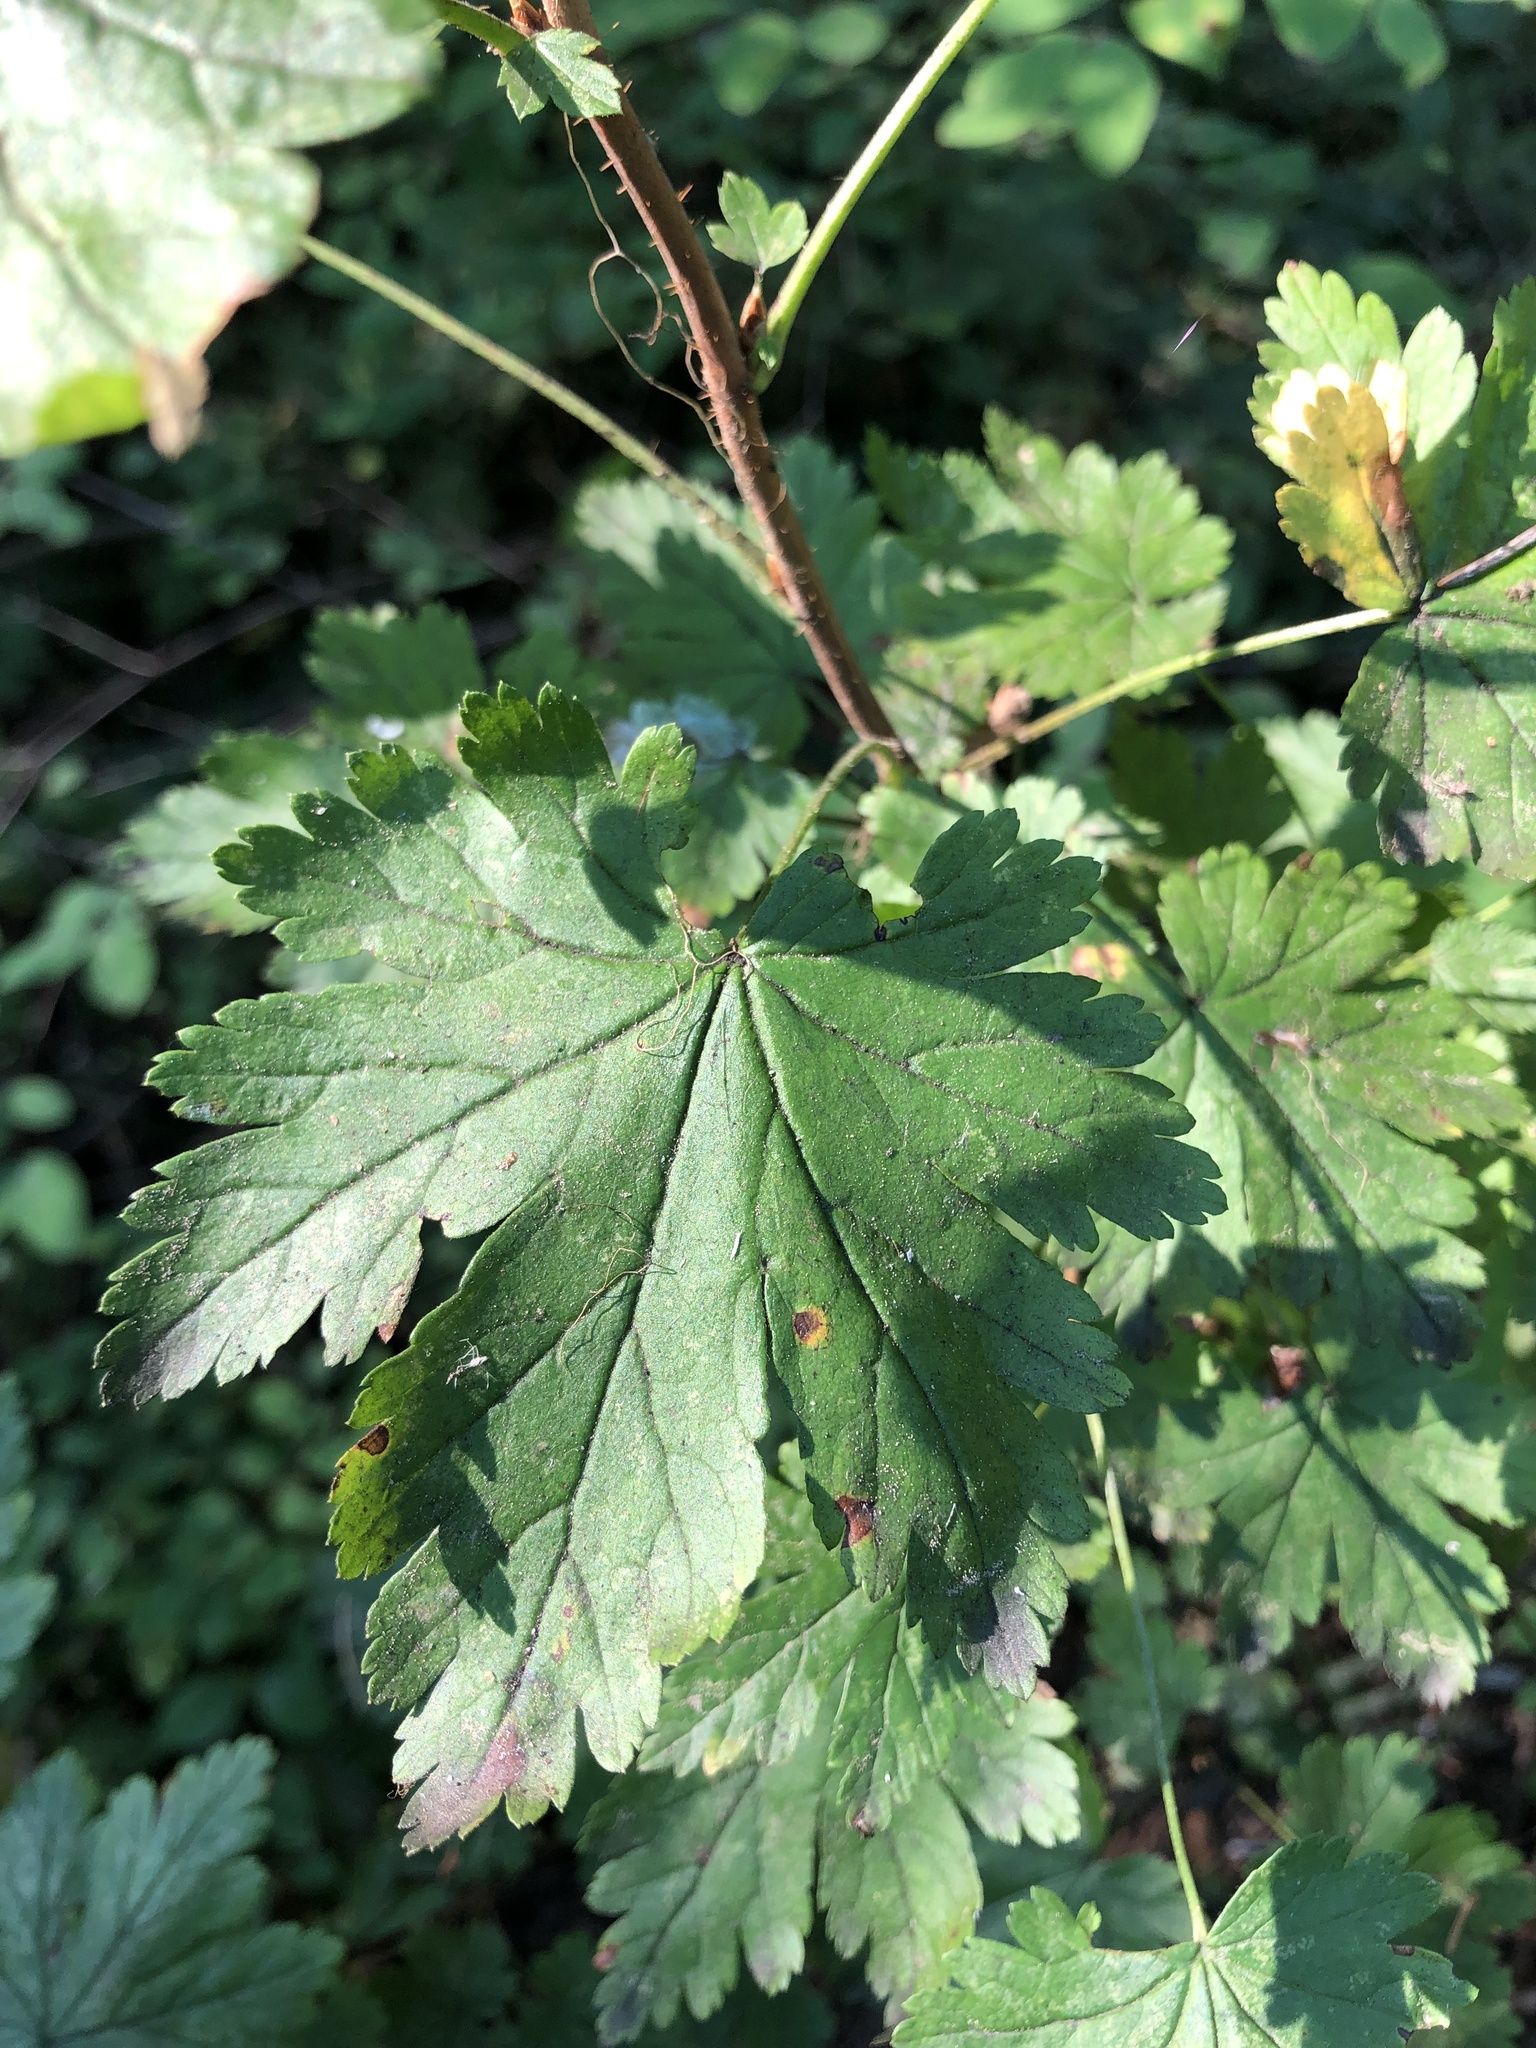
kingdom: Plantae
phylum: Tracheophyta
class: Magnoliopsida
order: Saxifragales
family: Grossulariaceae
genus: Ribes
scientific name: Ribes lacustre
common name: Black gooseberry
